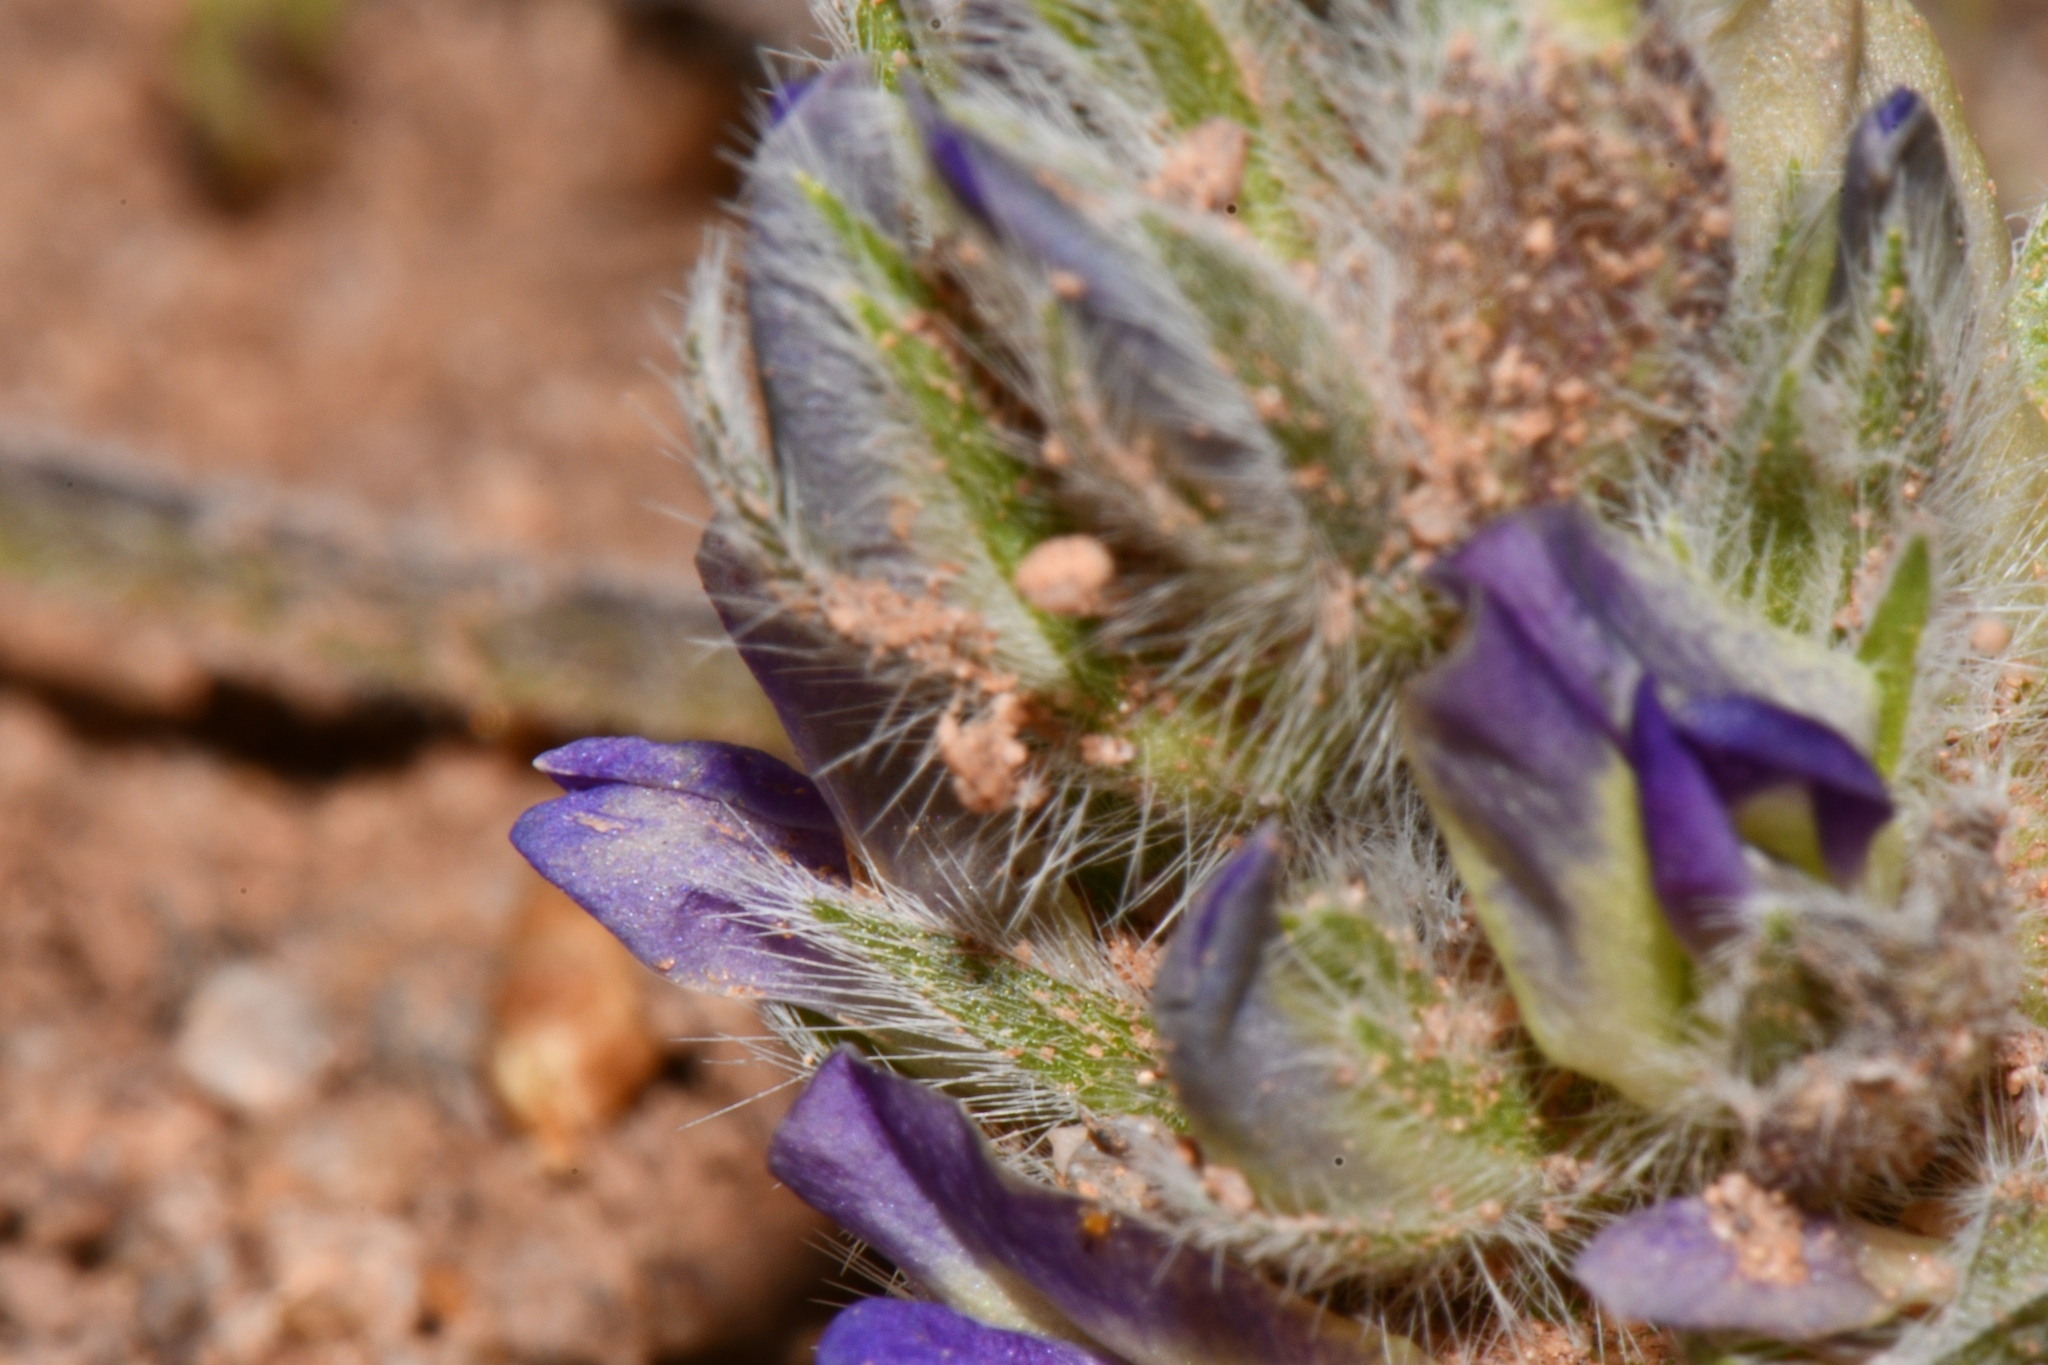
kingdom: Plantae
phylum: Tracheophyta
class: Magnoliopsida
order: Fabales
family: Fabaceae
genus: Pediomelum
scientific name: Pediomelum mephiticum
